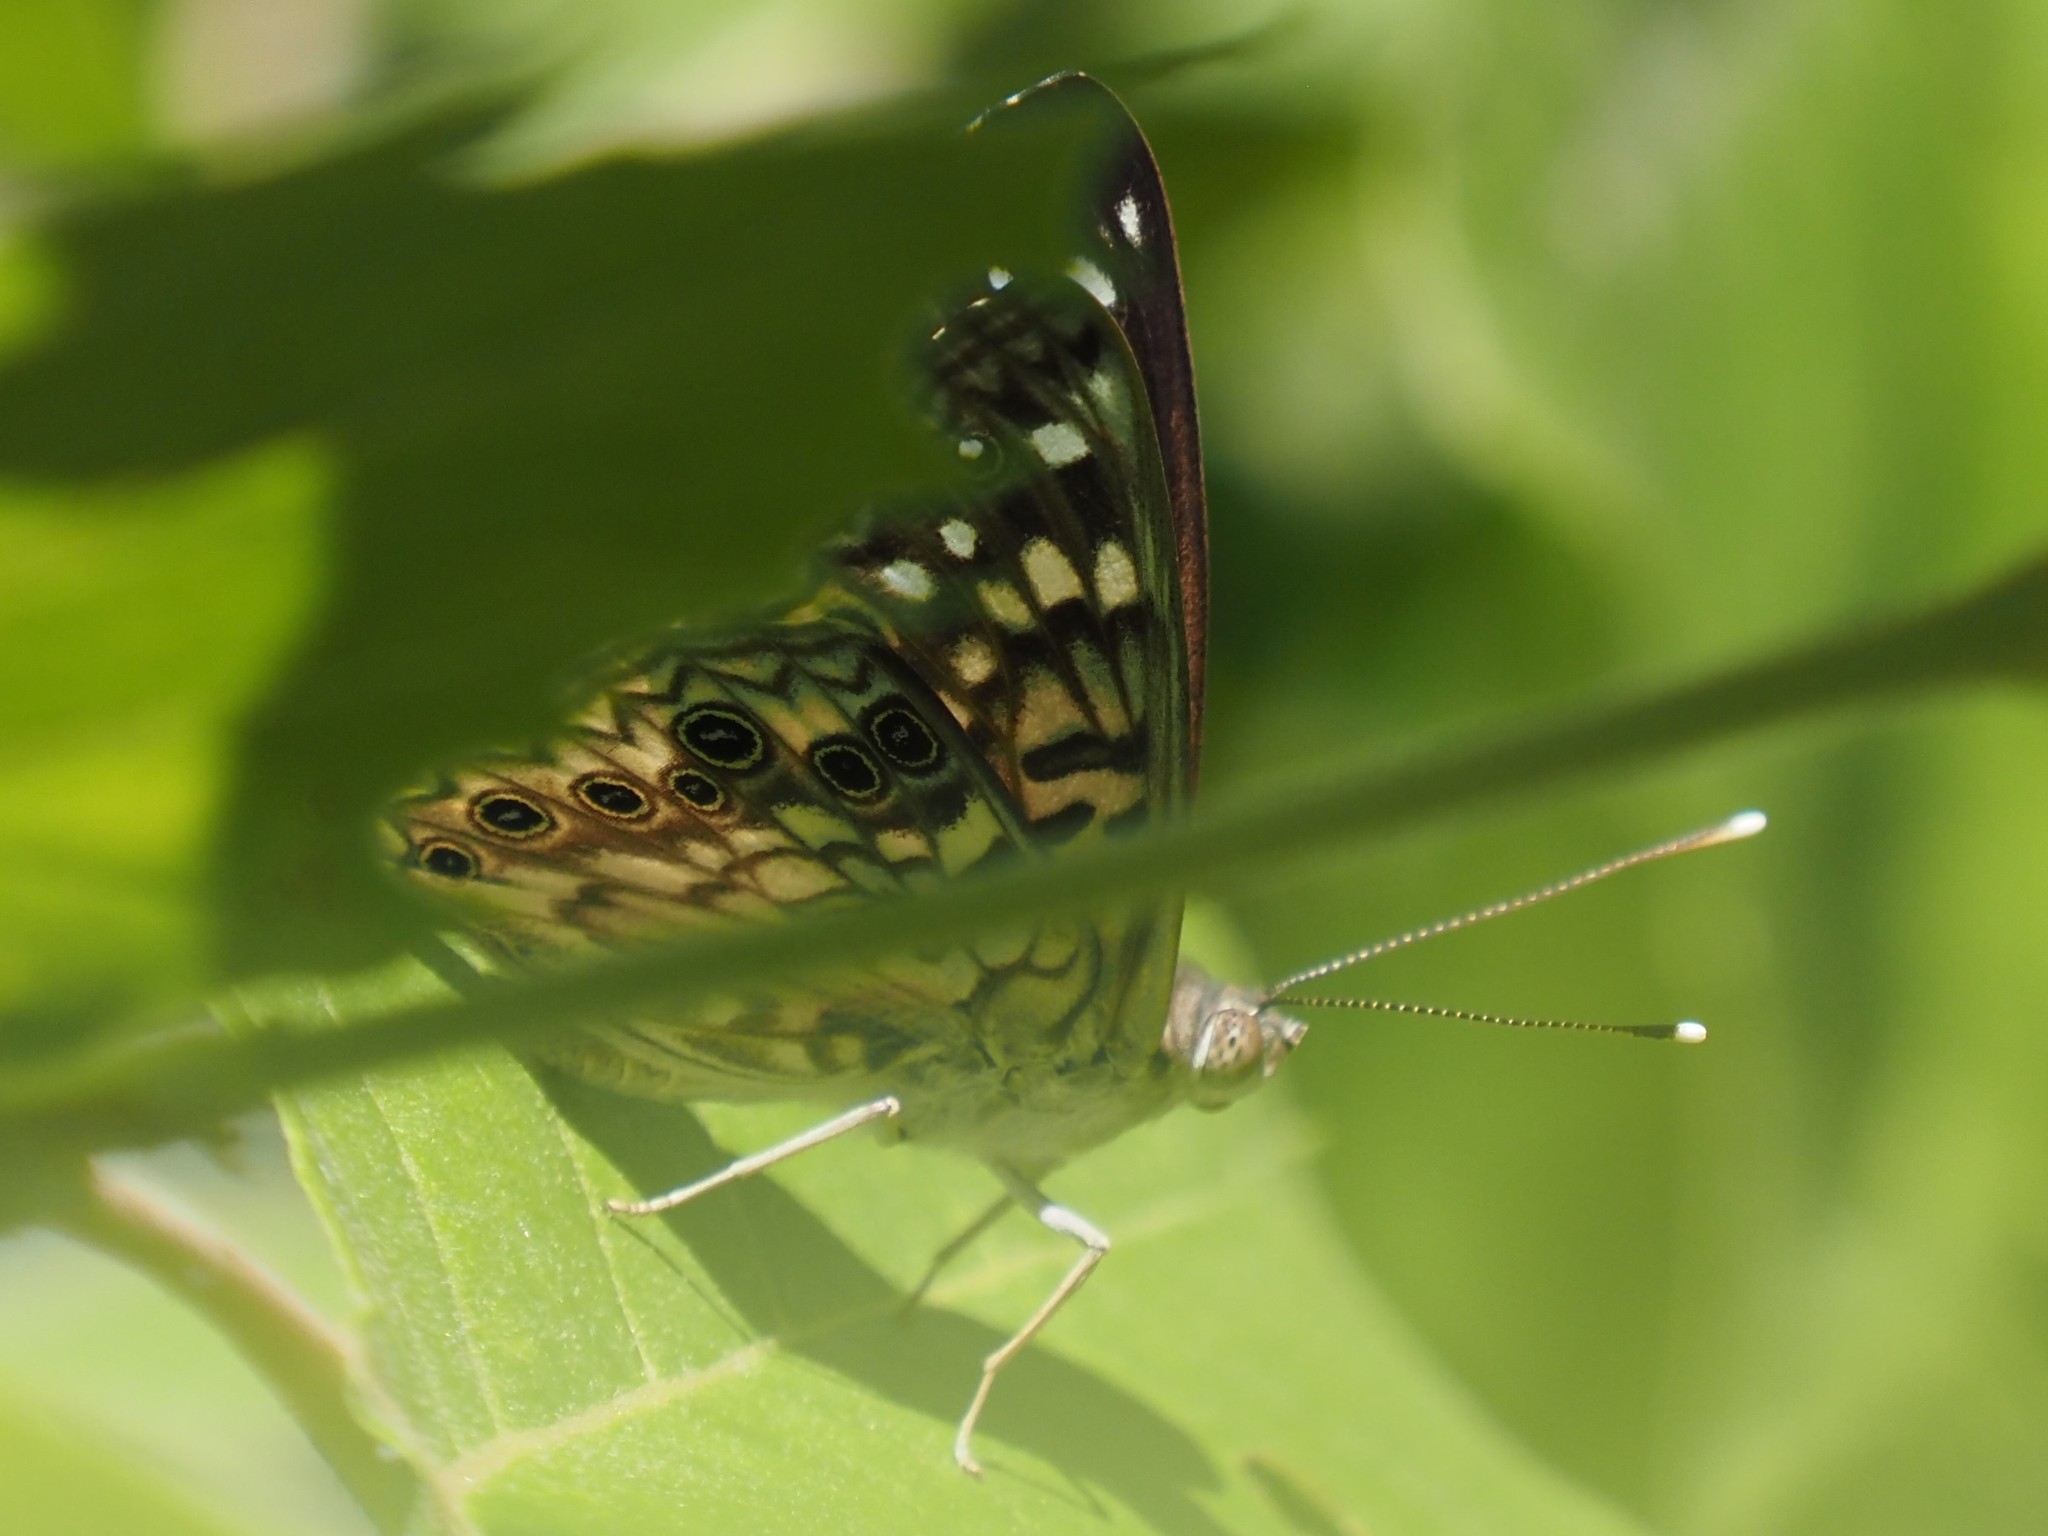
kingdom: Animalia
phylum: Arthropoda
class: Insecta
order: Lepidoptera
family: Nymphalidae
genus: Asterocampa
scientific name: Asterocampa celtis
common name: Hackberry emperor
